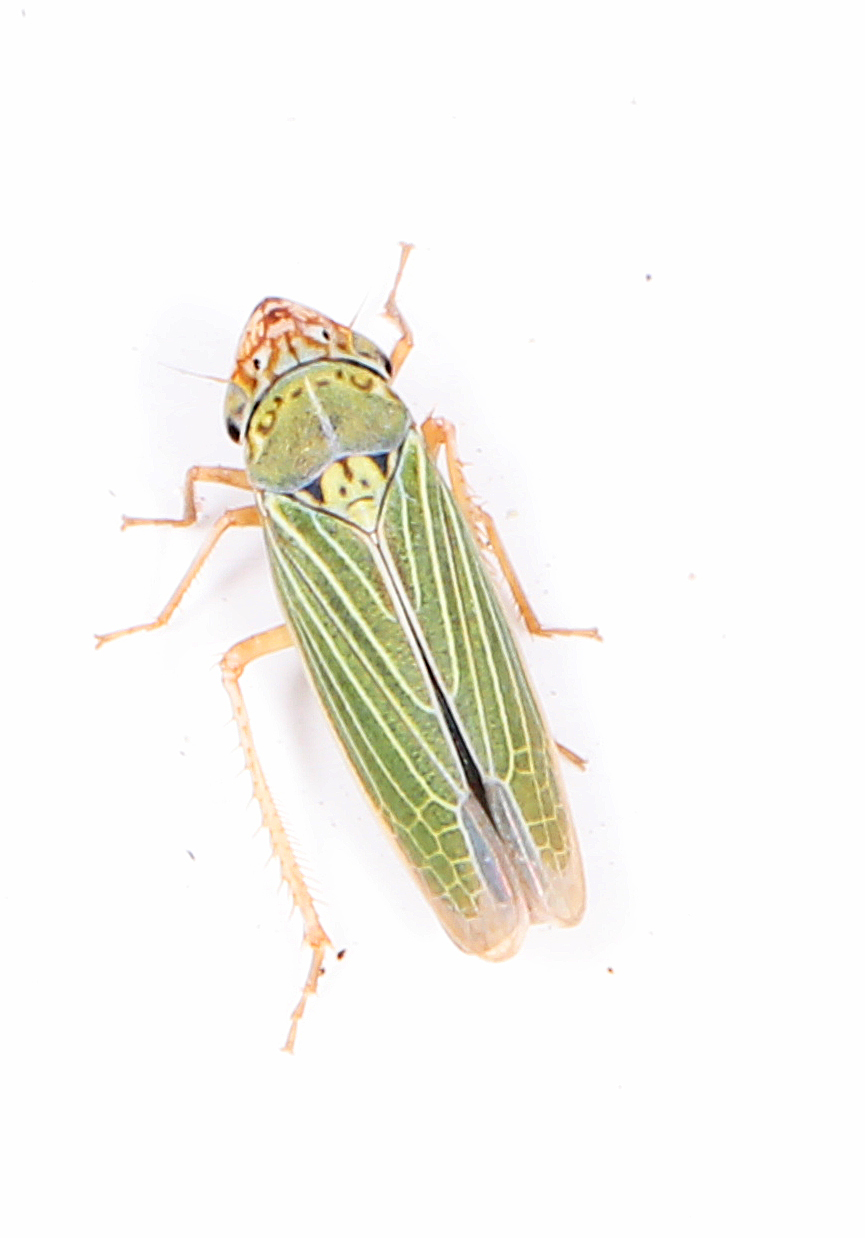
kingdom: Animalia
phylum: Arthropoda
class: Insecta
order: Hemiptera
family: Cicadellidae
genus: Xyphon
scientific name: Xyphon reticulatum
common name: Planthopper
